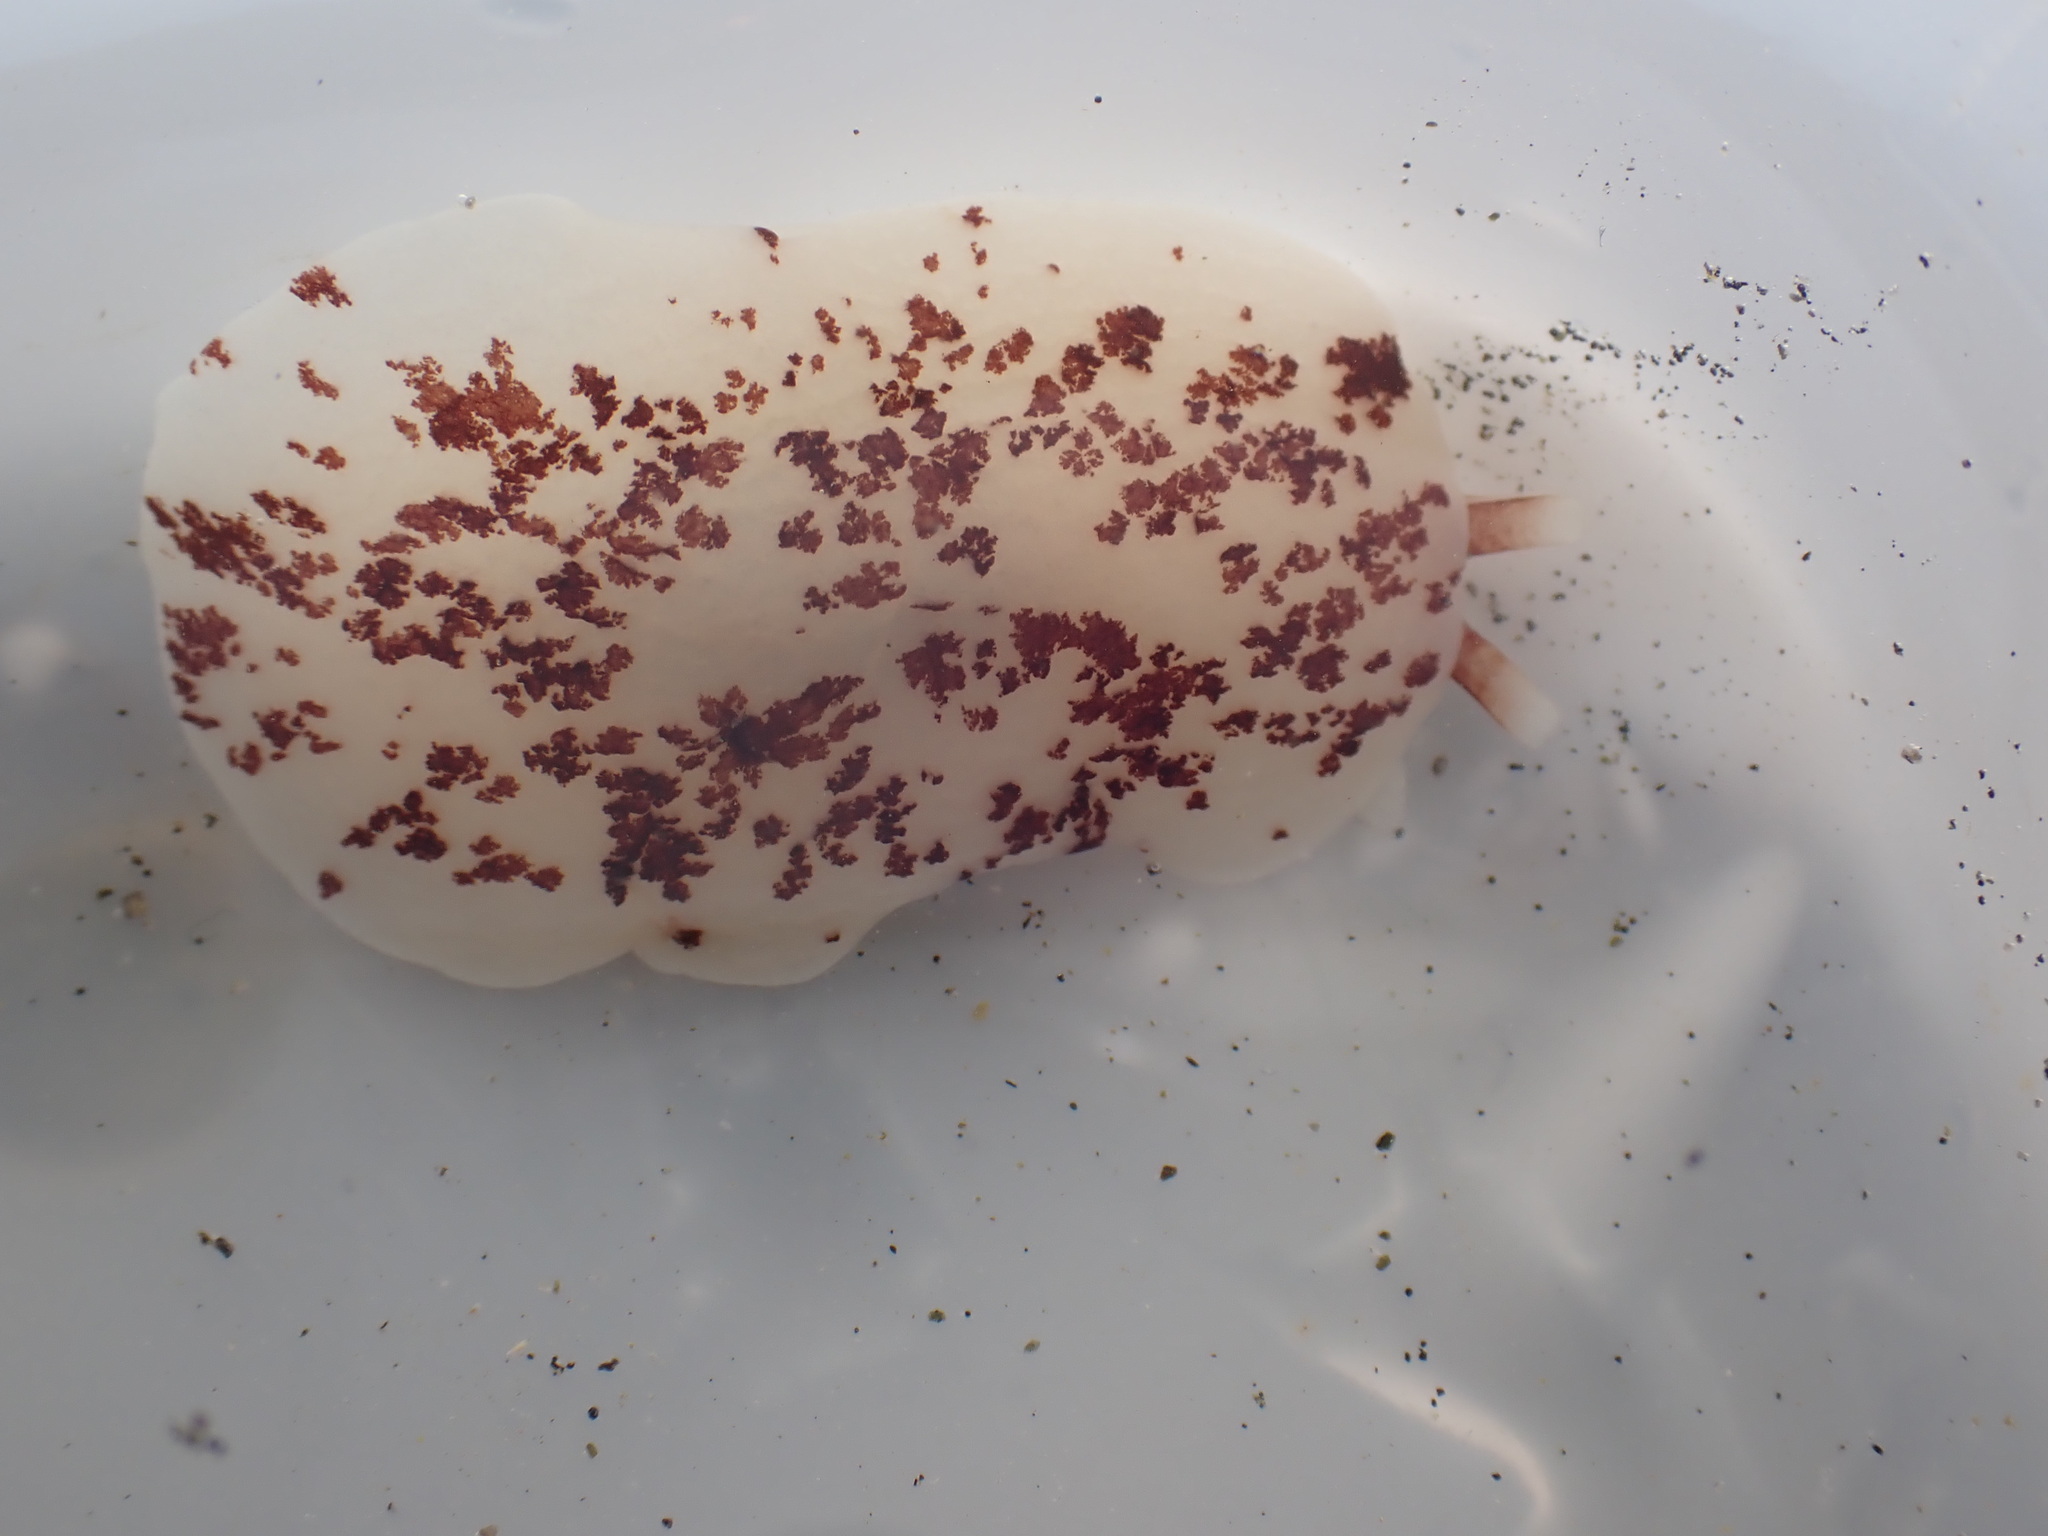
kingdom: Animalia
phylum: Mollusca
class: Gastropoda
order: Pleurobranchida
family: Pleurobranchidae
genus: Berthella
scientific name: Berthella ornata
